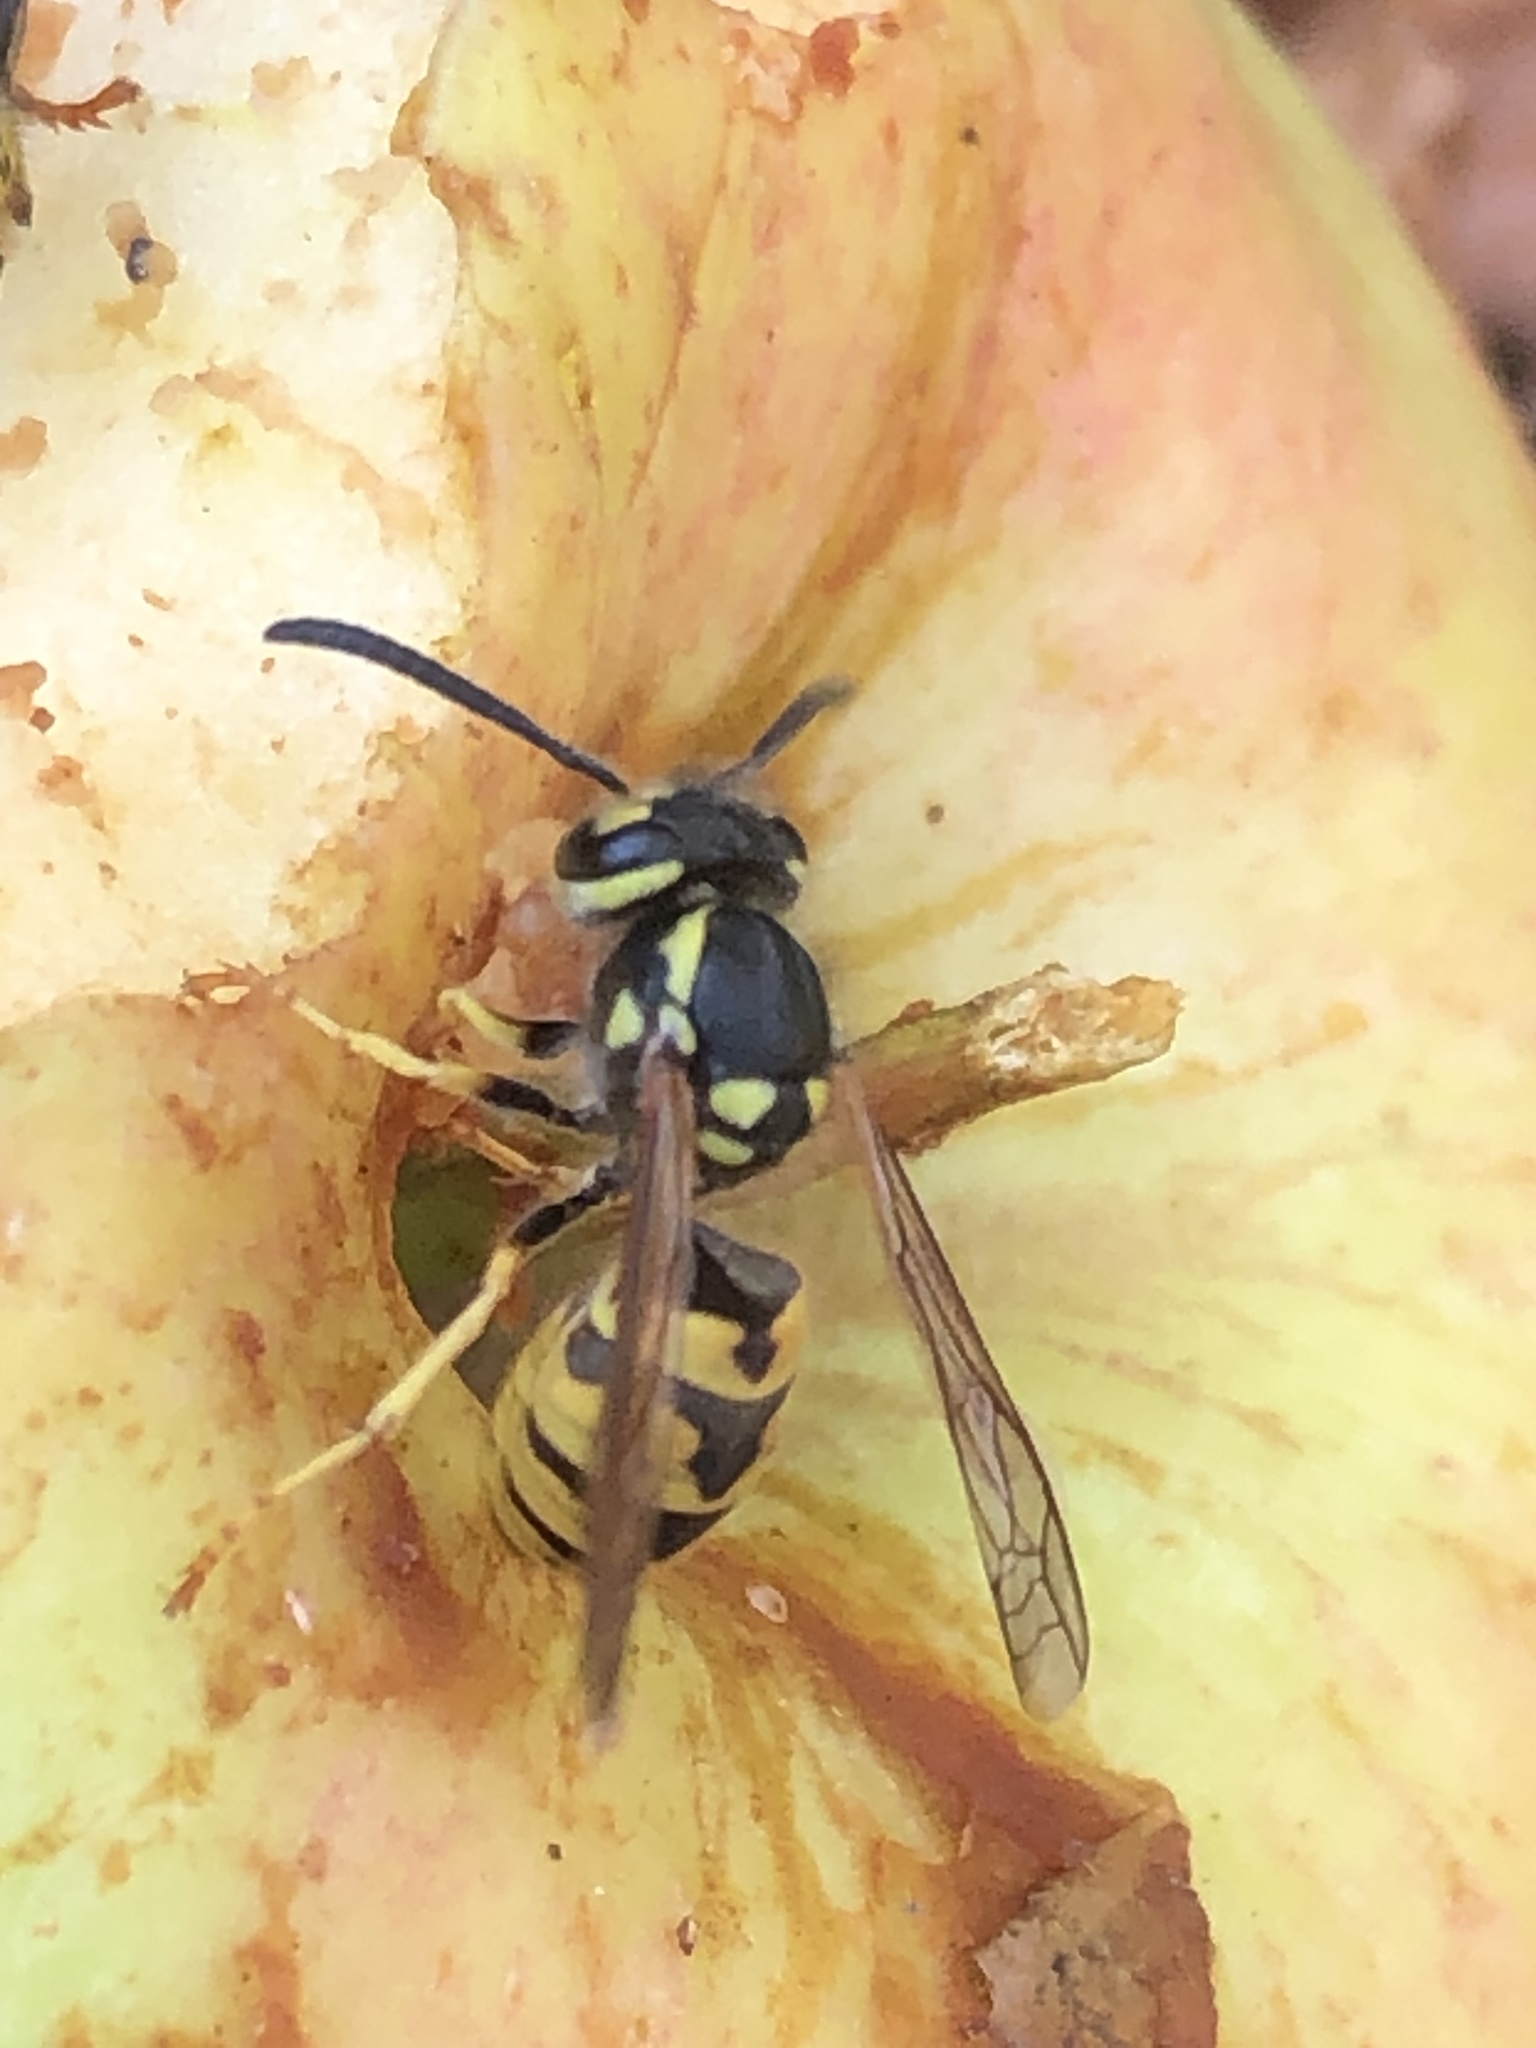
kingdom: Animalia
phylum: Arthropoda
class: Insecta
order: Hymenoptera
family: Vespidae
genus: Vespula
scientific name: Vespula germanica
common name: German wasp
